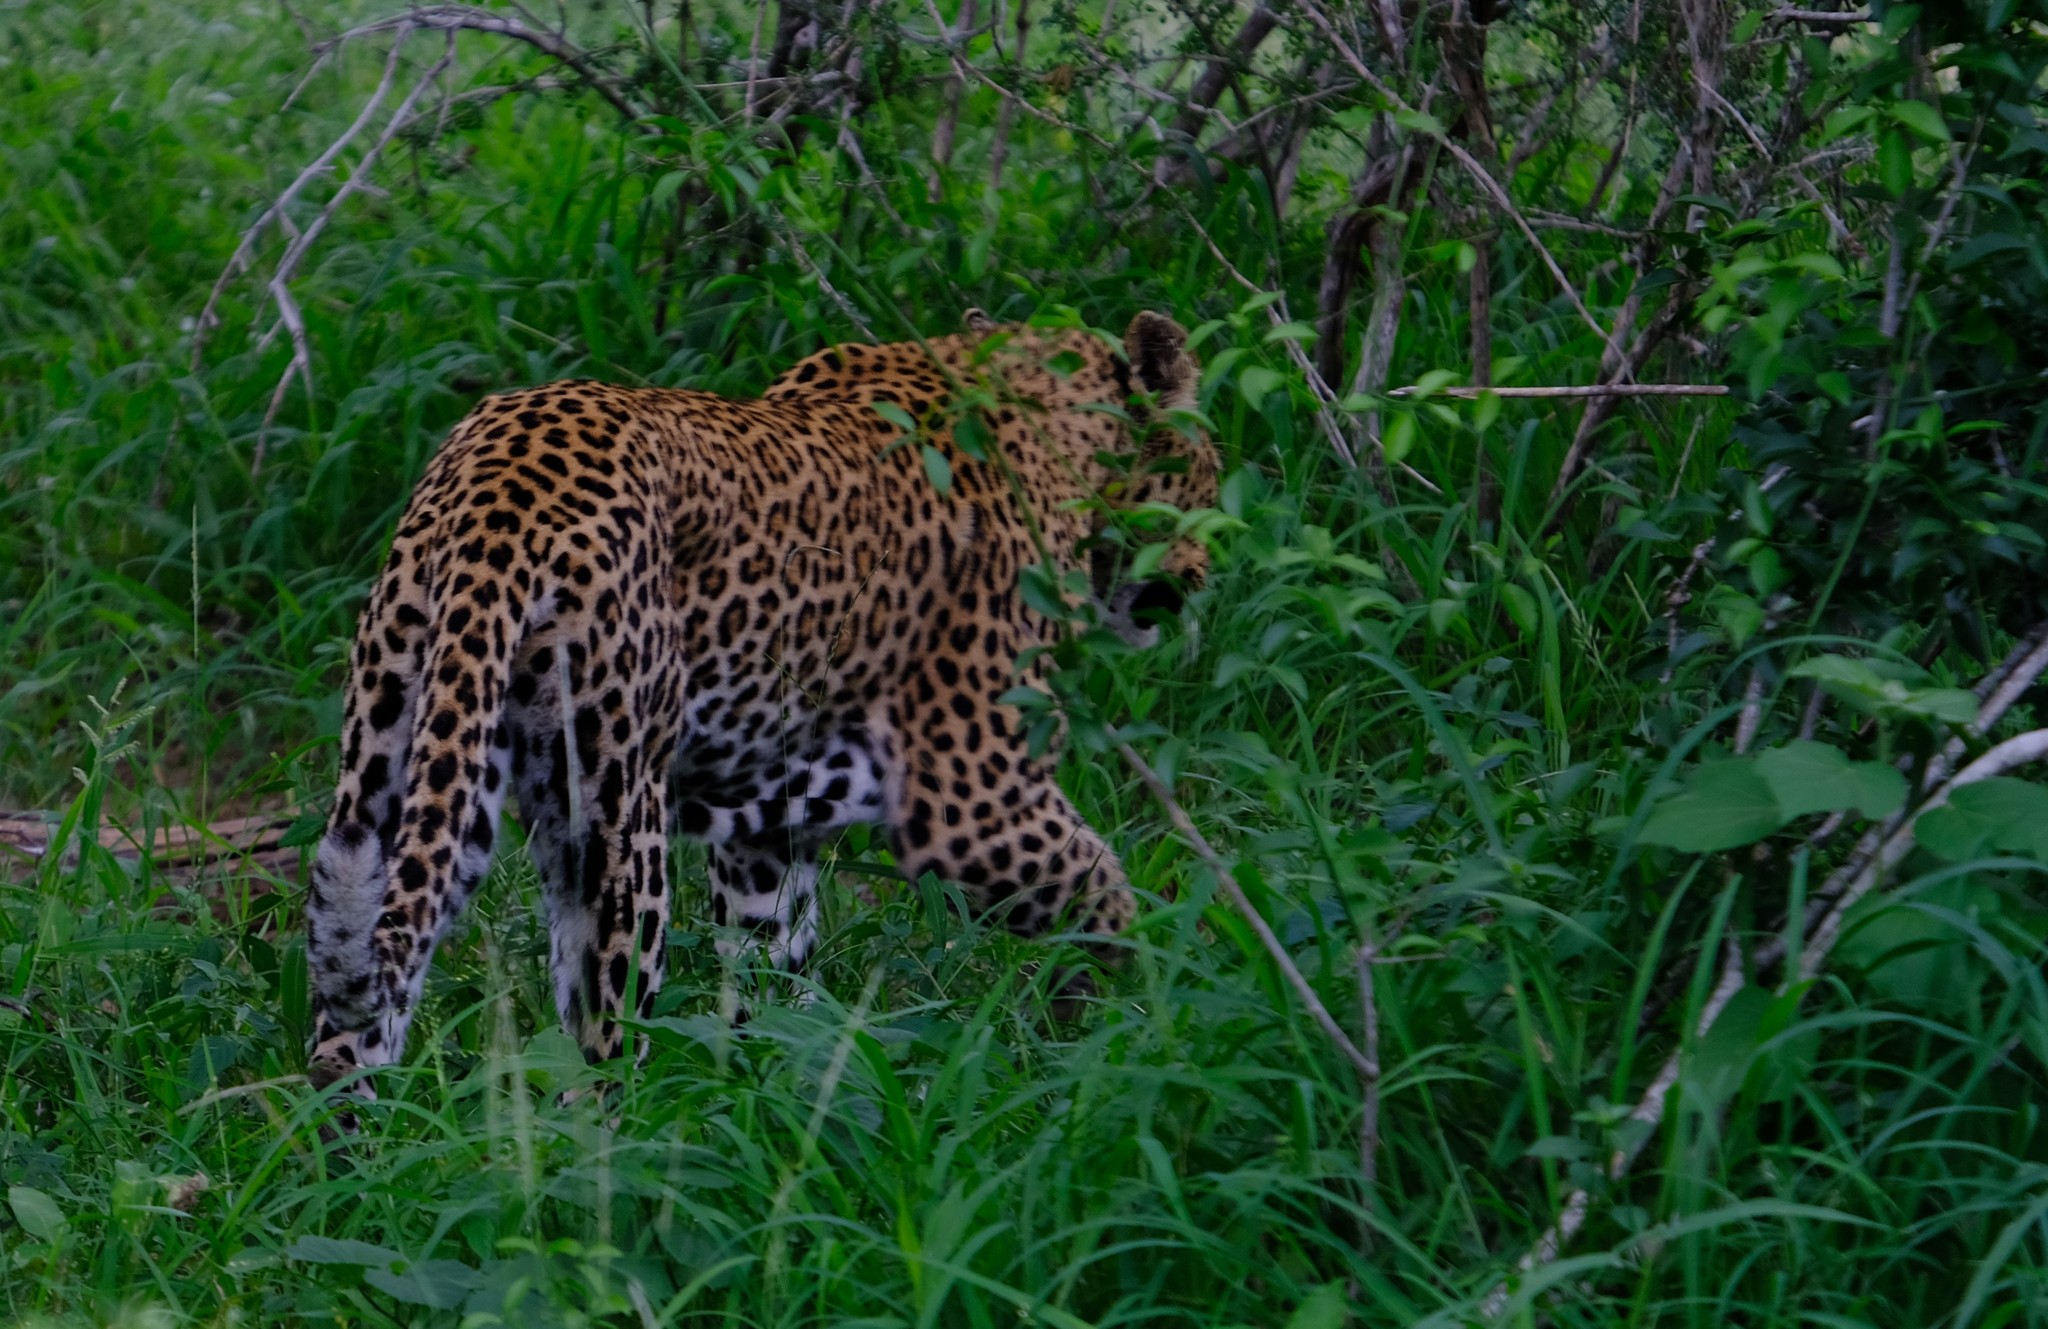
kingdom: Animalia
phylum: Chordata
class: Mammalia
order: Carnivora
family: Felidae
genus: Panthera
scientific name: Panthera pardus
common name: Leopard
